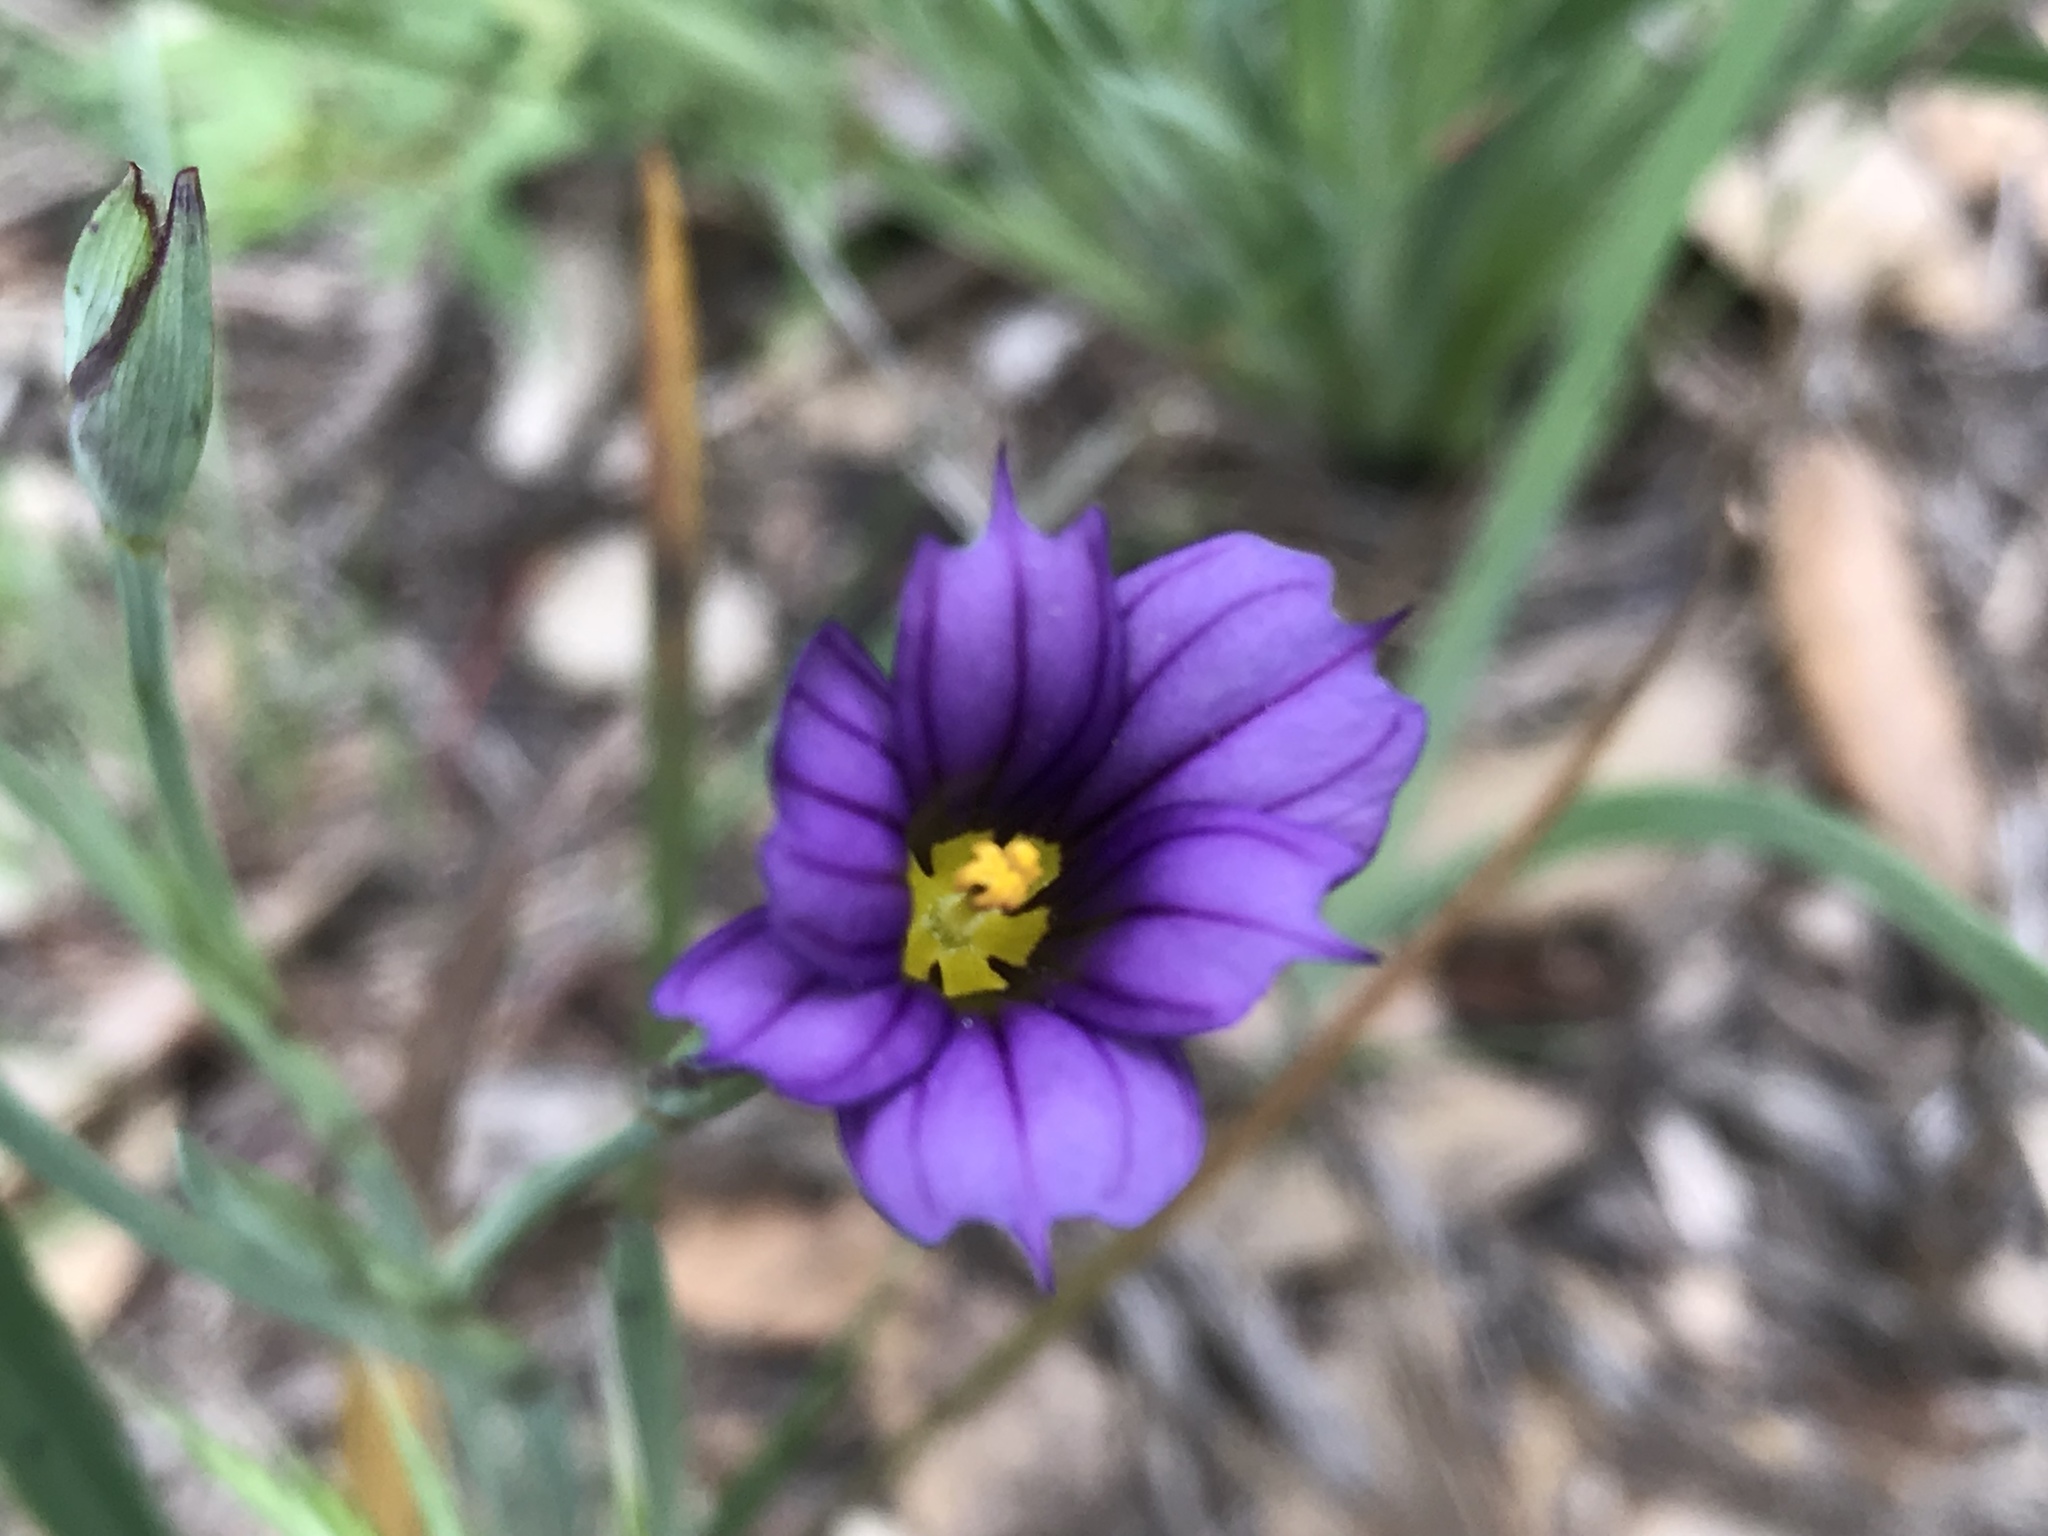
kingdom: Plantae
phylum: Tracheophyta
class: Liliopsida
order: Asparagales
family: Iridaceae
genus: Sisyrinchium
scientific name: Sisyrinchium bellum
